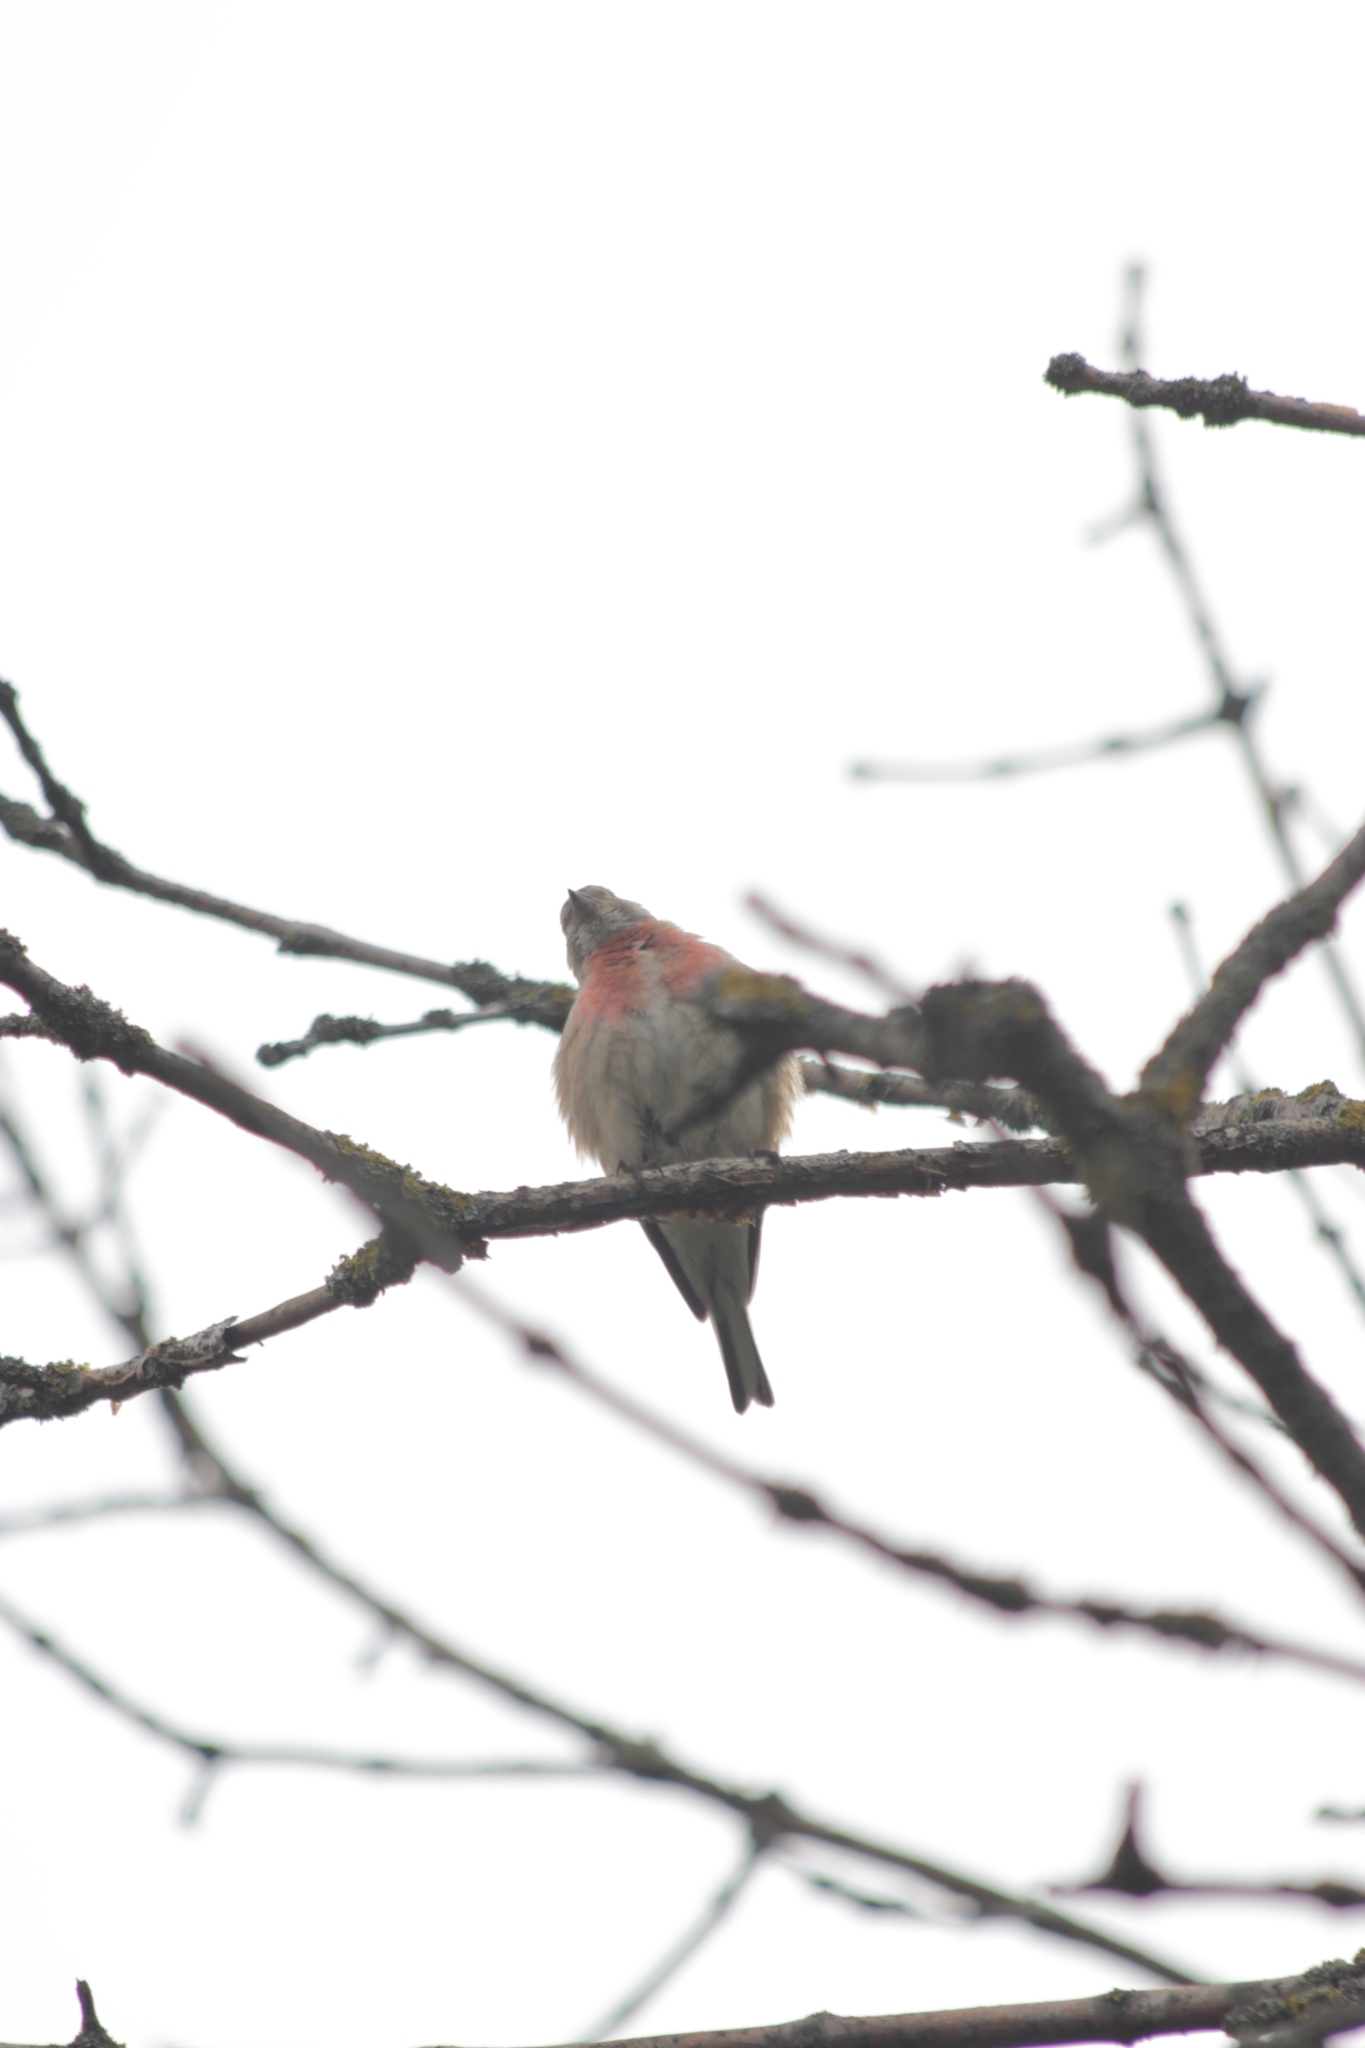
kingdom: Animalia
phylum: Chordata
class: Aves
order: Passeriformes
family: Fringillidae
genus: Linaria
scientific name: Linaria cannabina
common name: Common linnet
